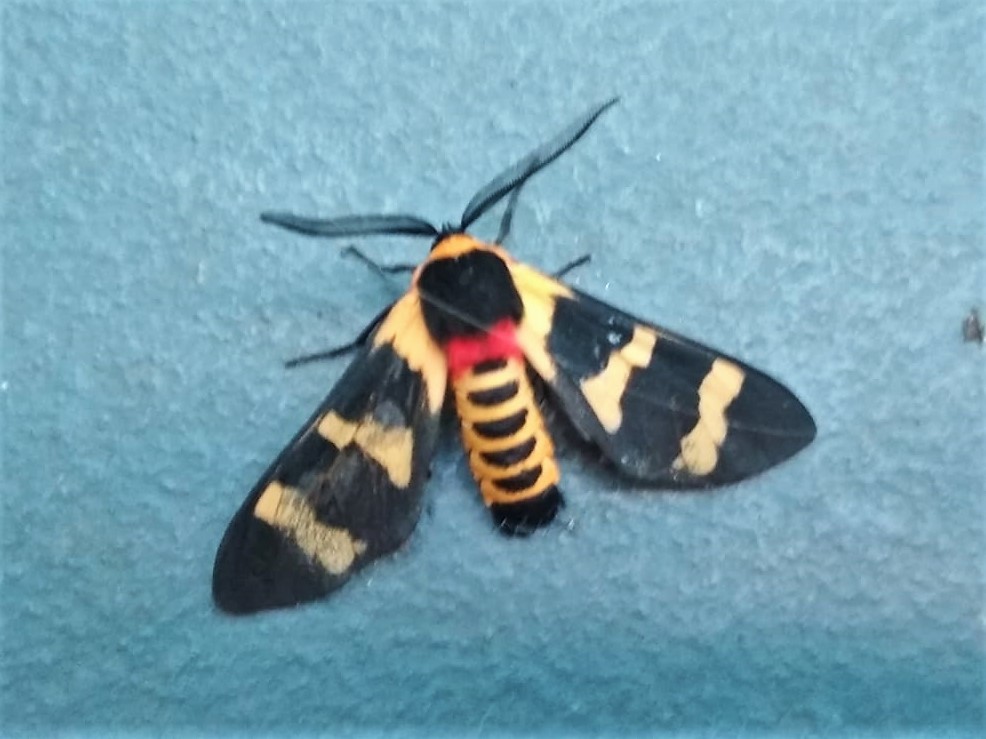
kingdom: Animalia
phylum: Arthropoda
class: Insecta
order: Lepidoptera
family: Erebidae
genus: Eurata
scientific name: Eurata hilaris
